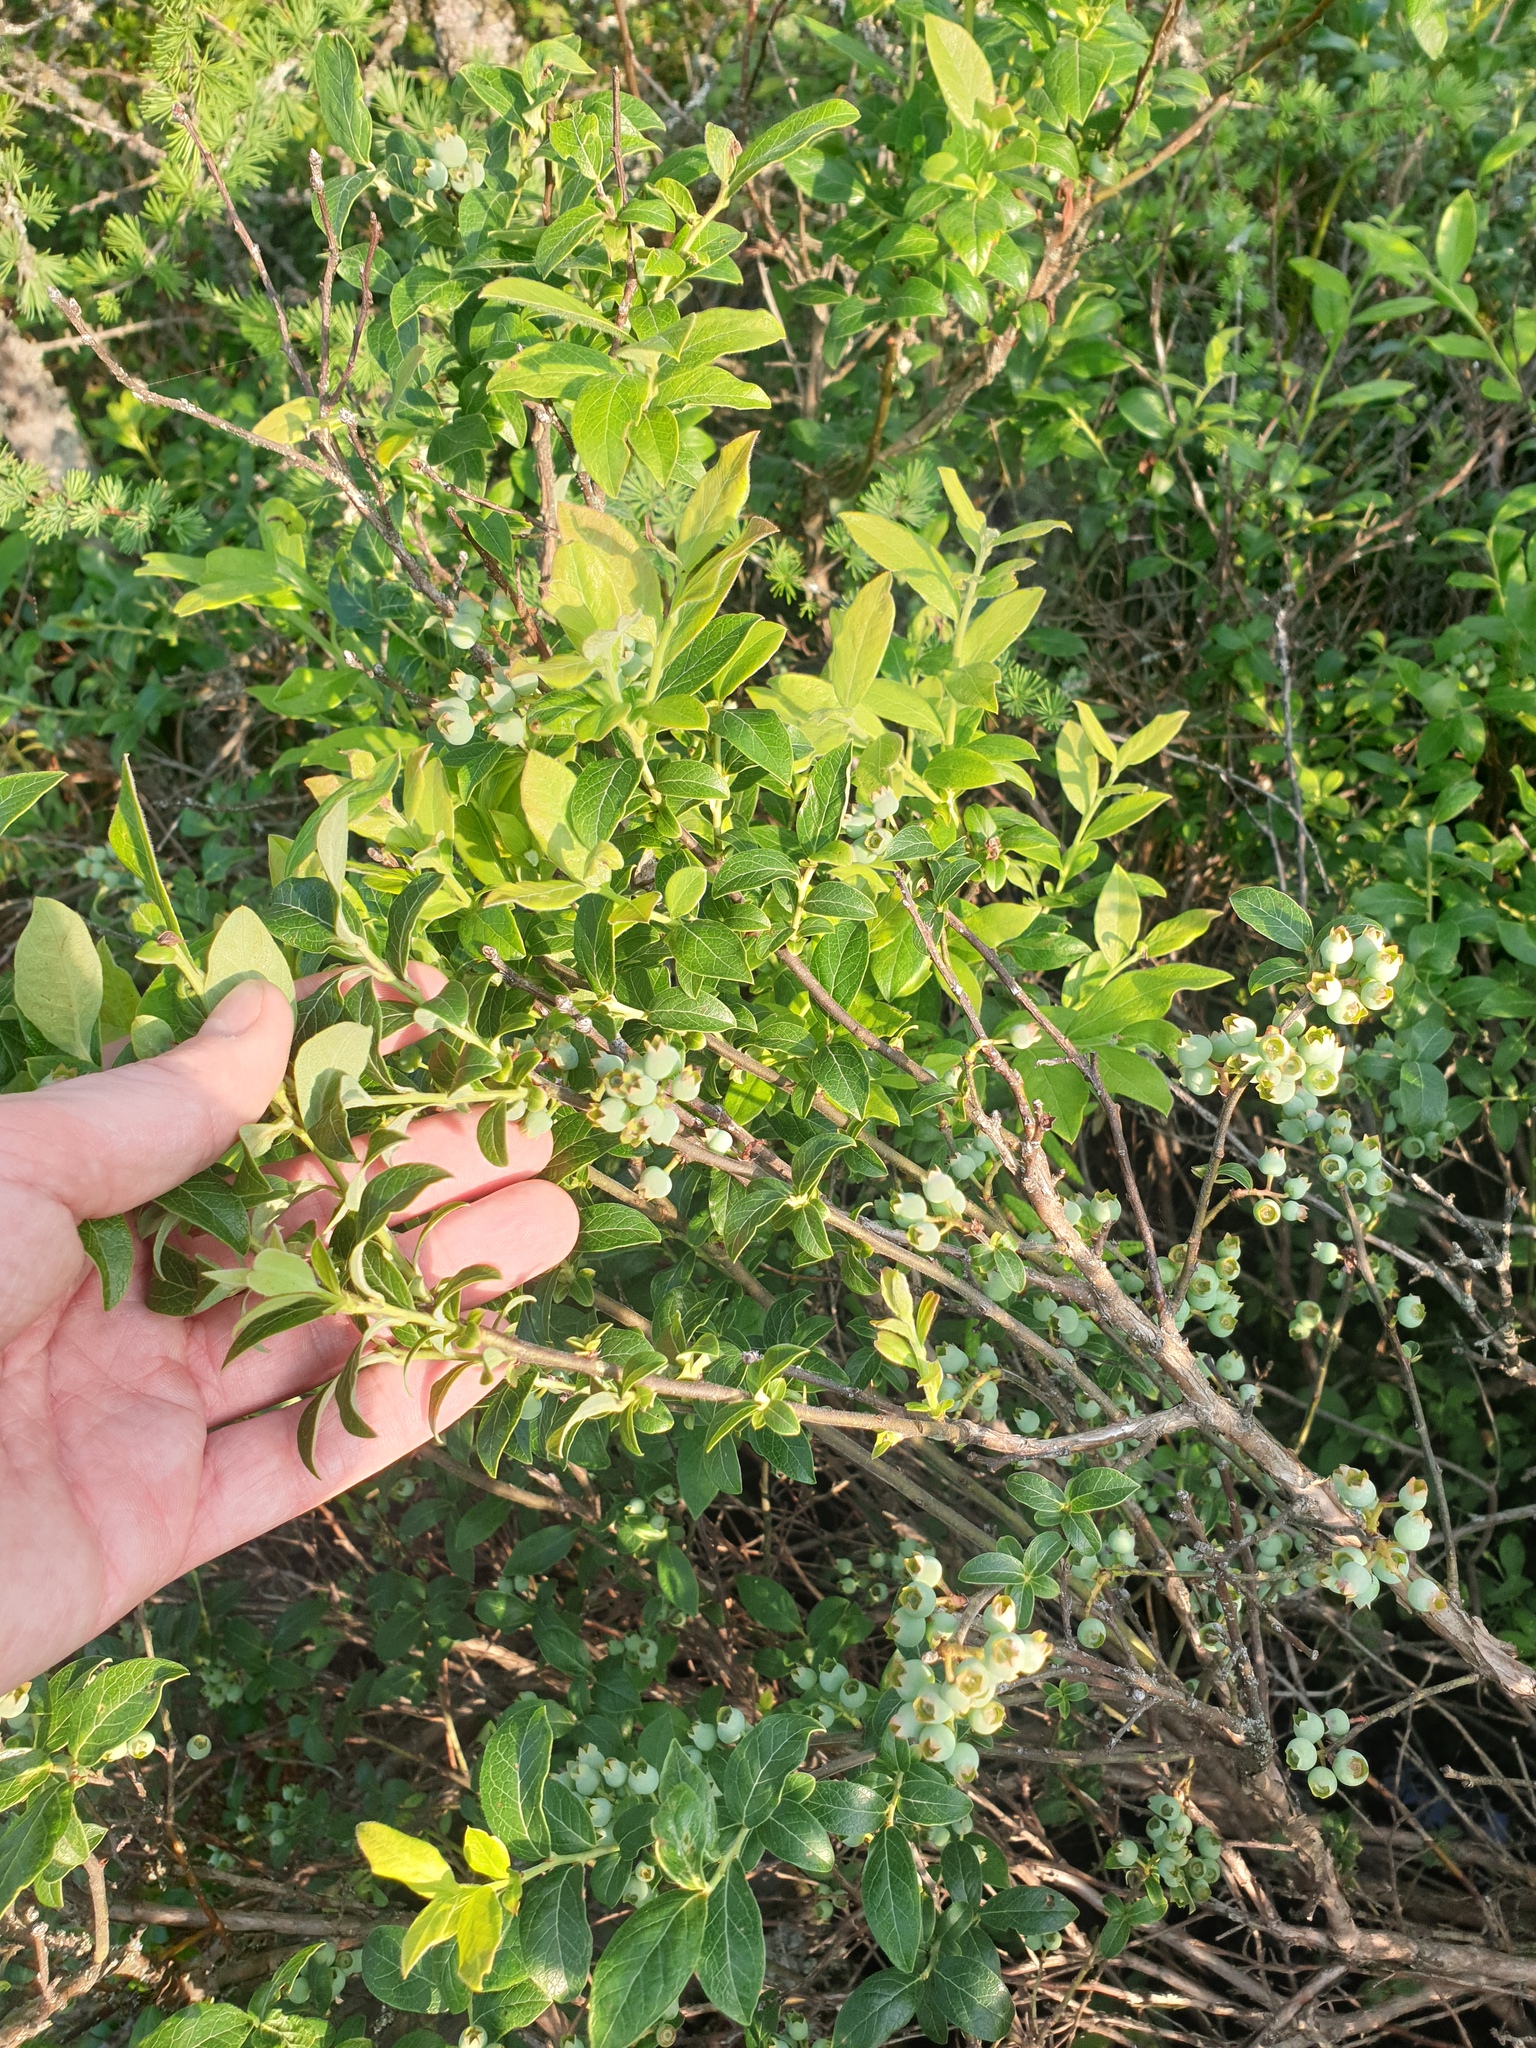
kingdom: Plantae
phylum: Tracheophyta
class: Magnoliopsida
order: Ericales
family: Ericaceae
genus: Vaccinium
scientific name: Vaccinium corymbosum
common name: Blueberry
